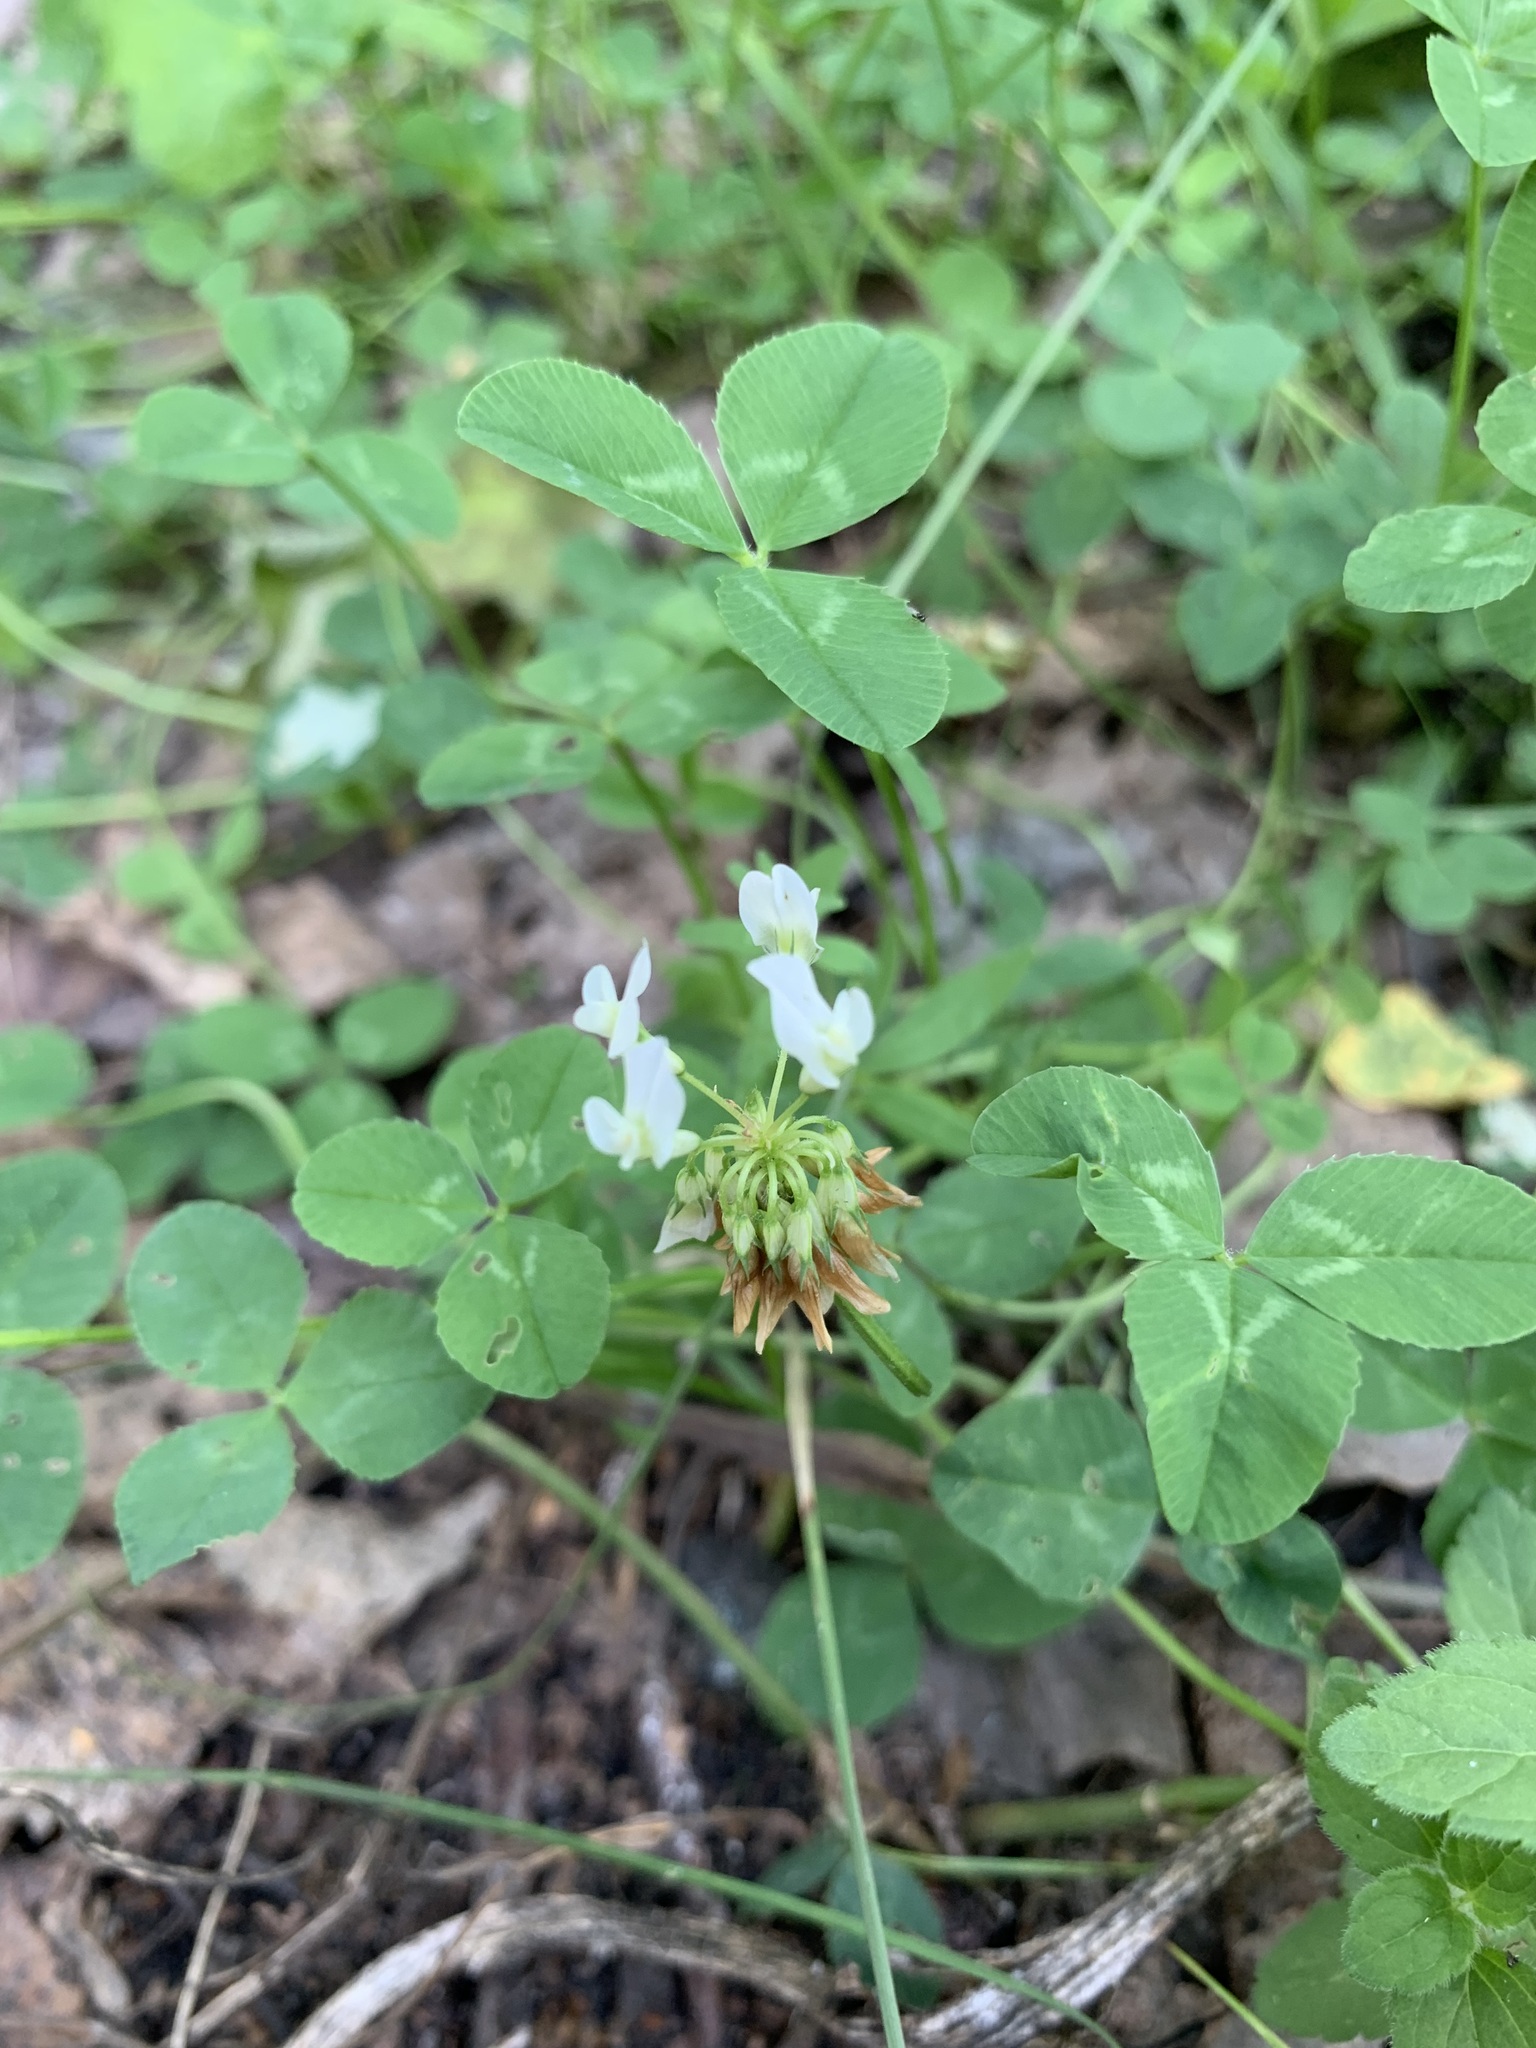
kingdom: Plantae
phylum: Tracheophyta
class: Magnoliopsida
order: Fabales
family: Fabaceae
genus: Trifolium
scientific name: Trifolium repens
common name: White clover
